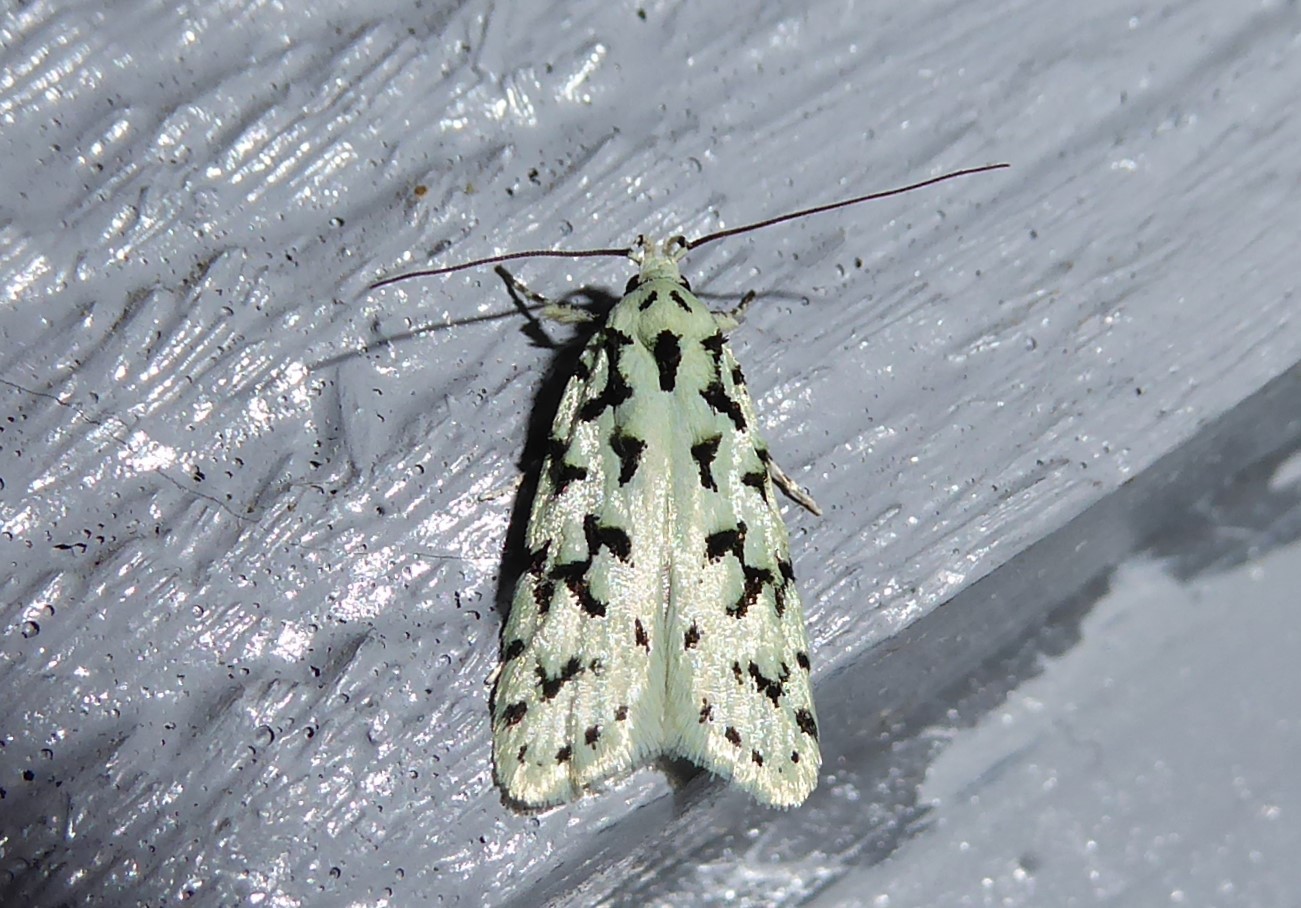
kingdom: Animalia
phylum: Arthropoda
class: Insecta
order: Lepidoptera
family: Oecophoridae
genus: Izatha
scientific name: Izatha huttoni
